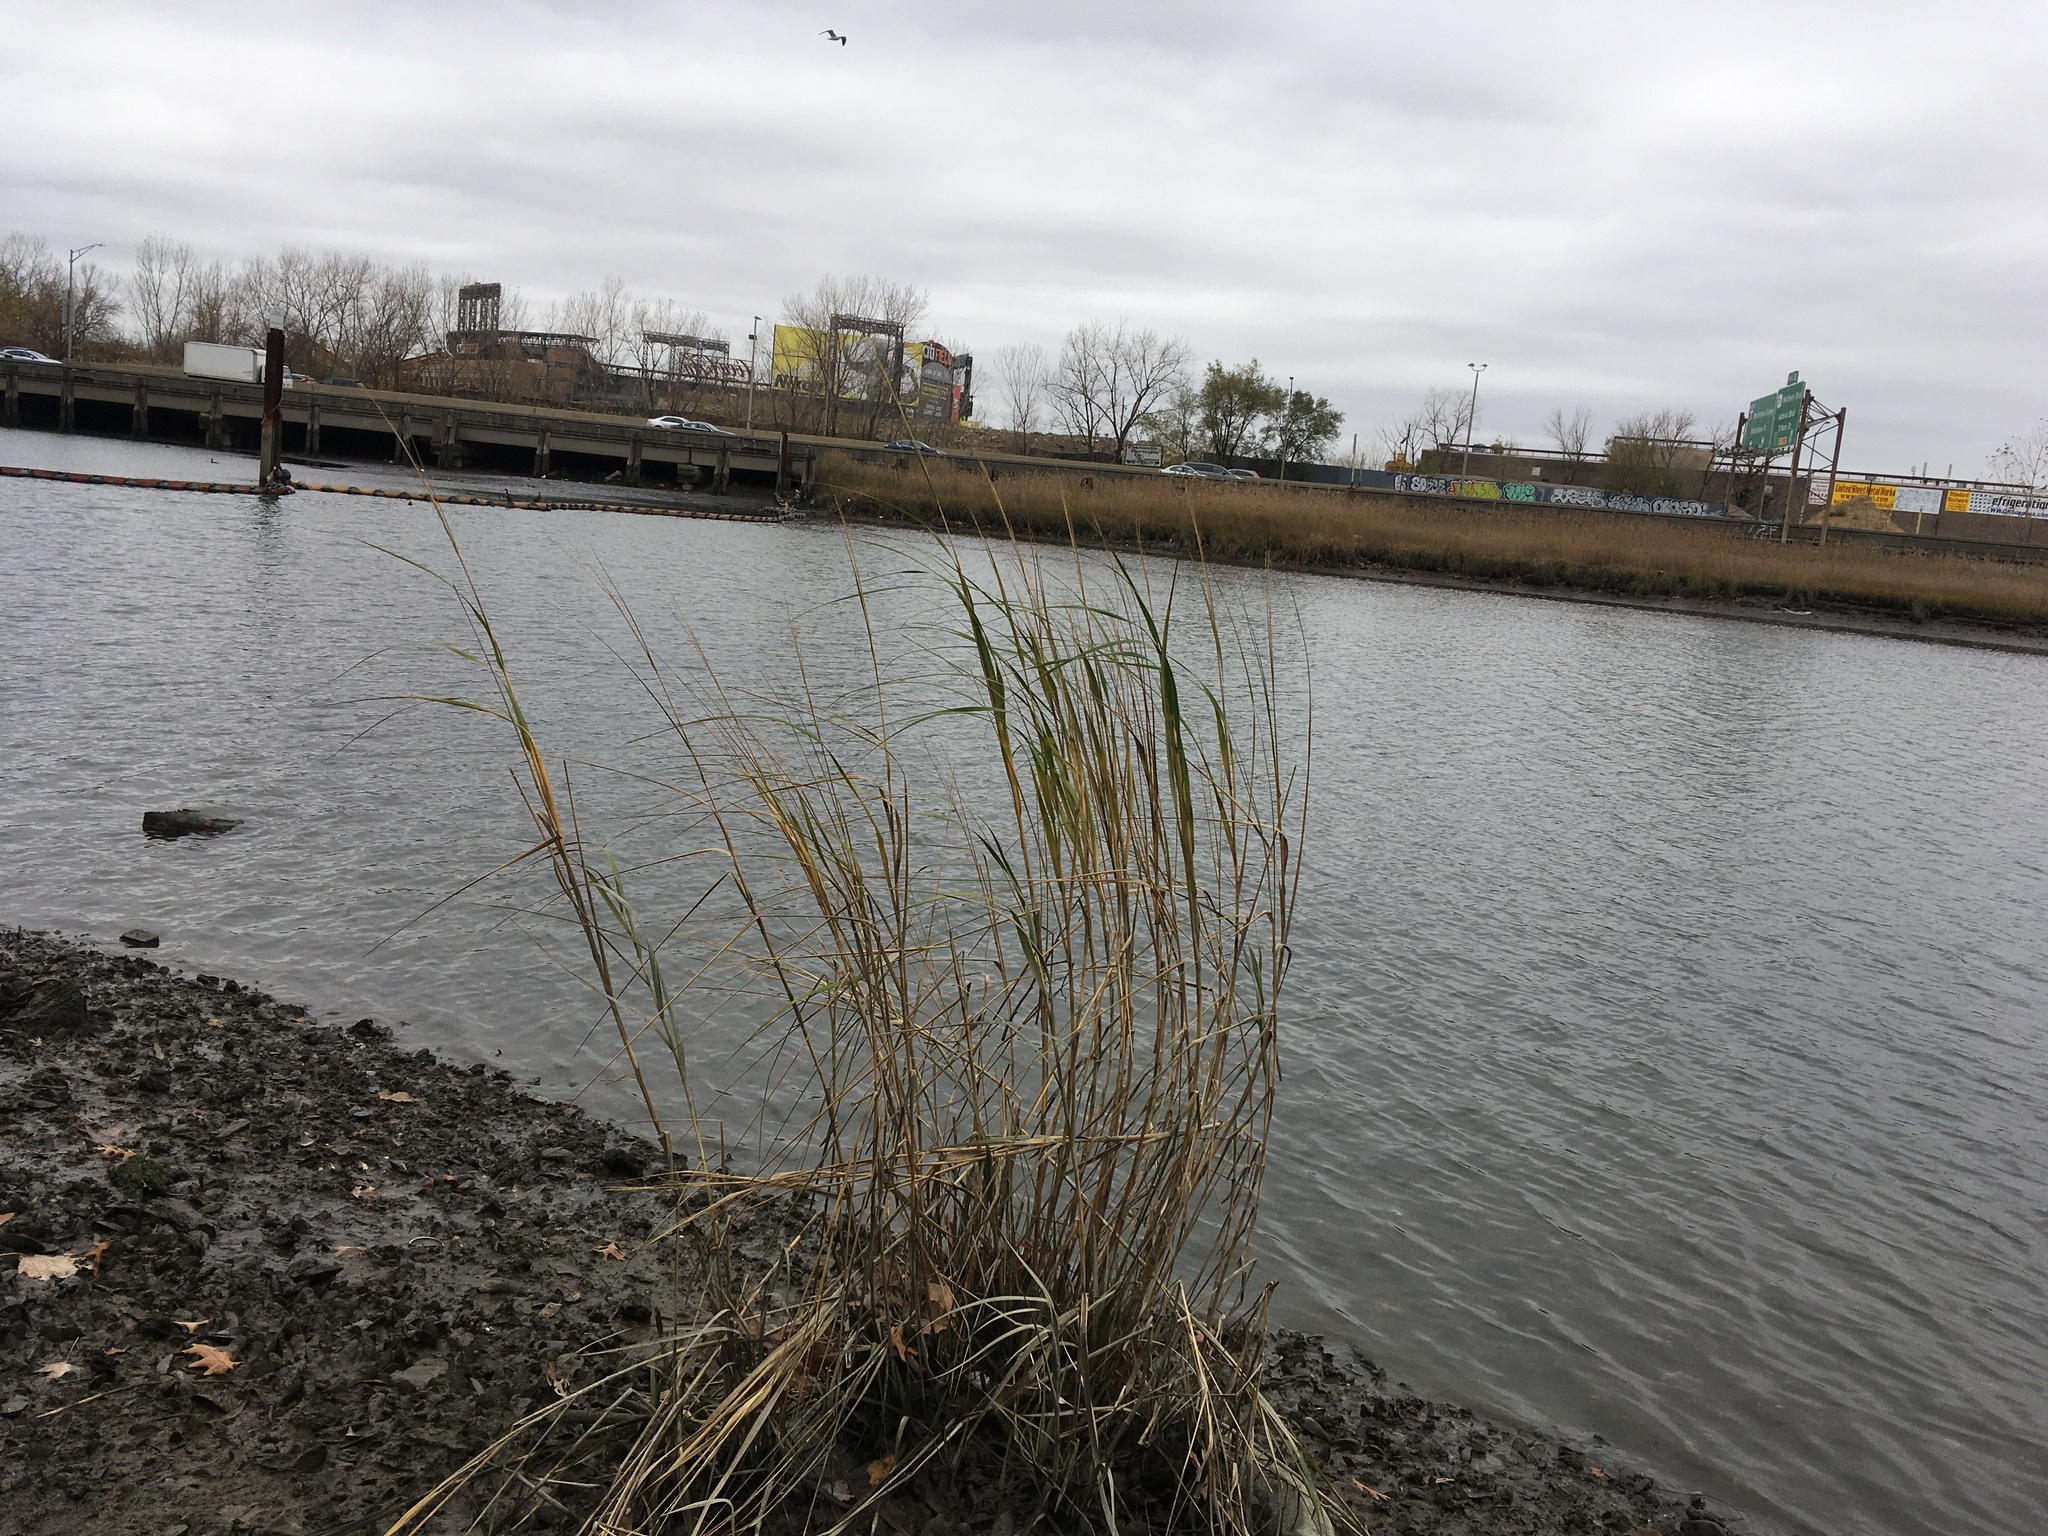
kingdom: Plantae
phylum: Tracheophyta
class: Liliopsida
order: Poales
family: Poaceae
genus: Sporobolus
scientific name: Sporobolus alterniflorus
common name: Atlantic cordgrass
